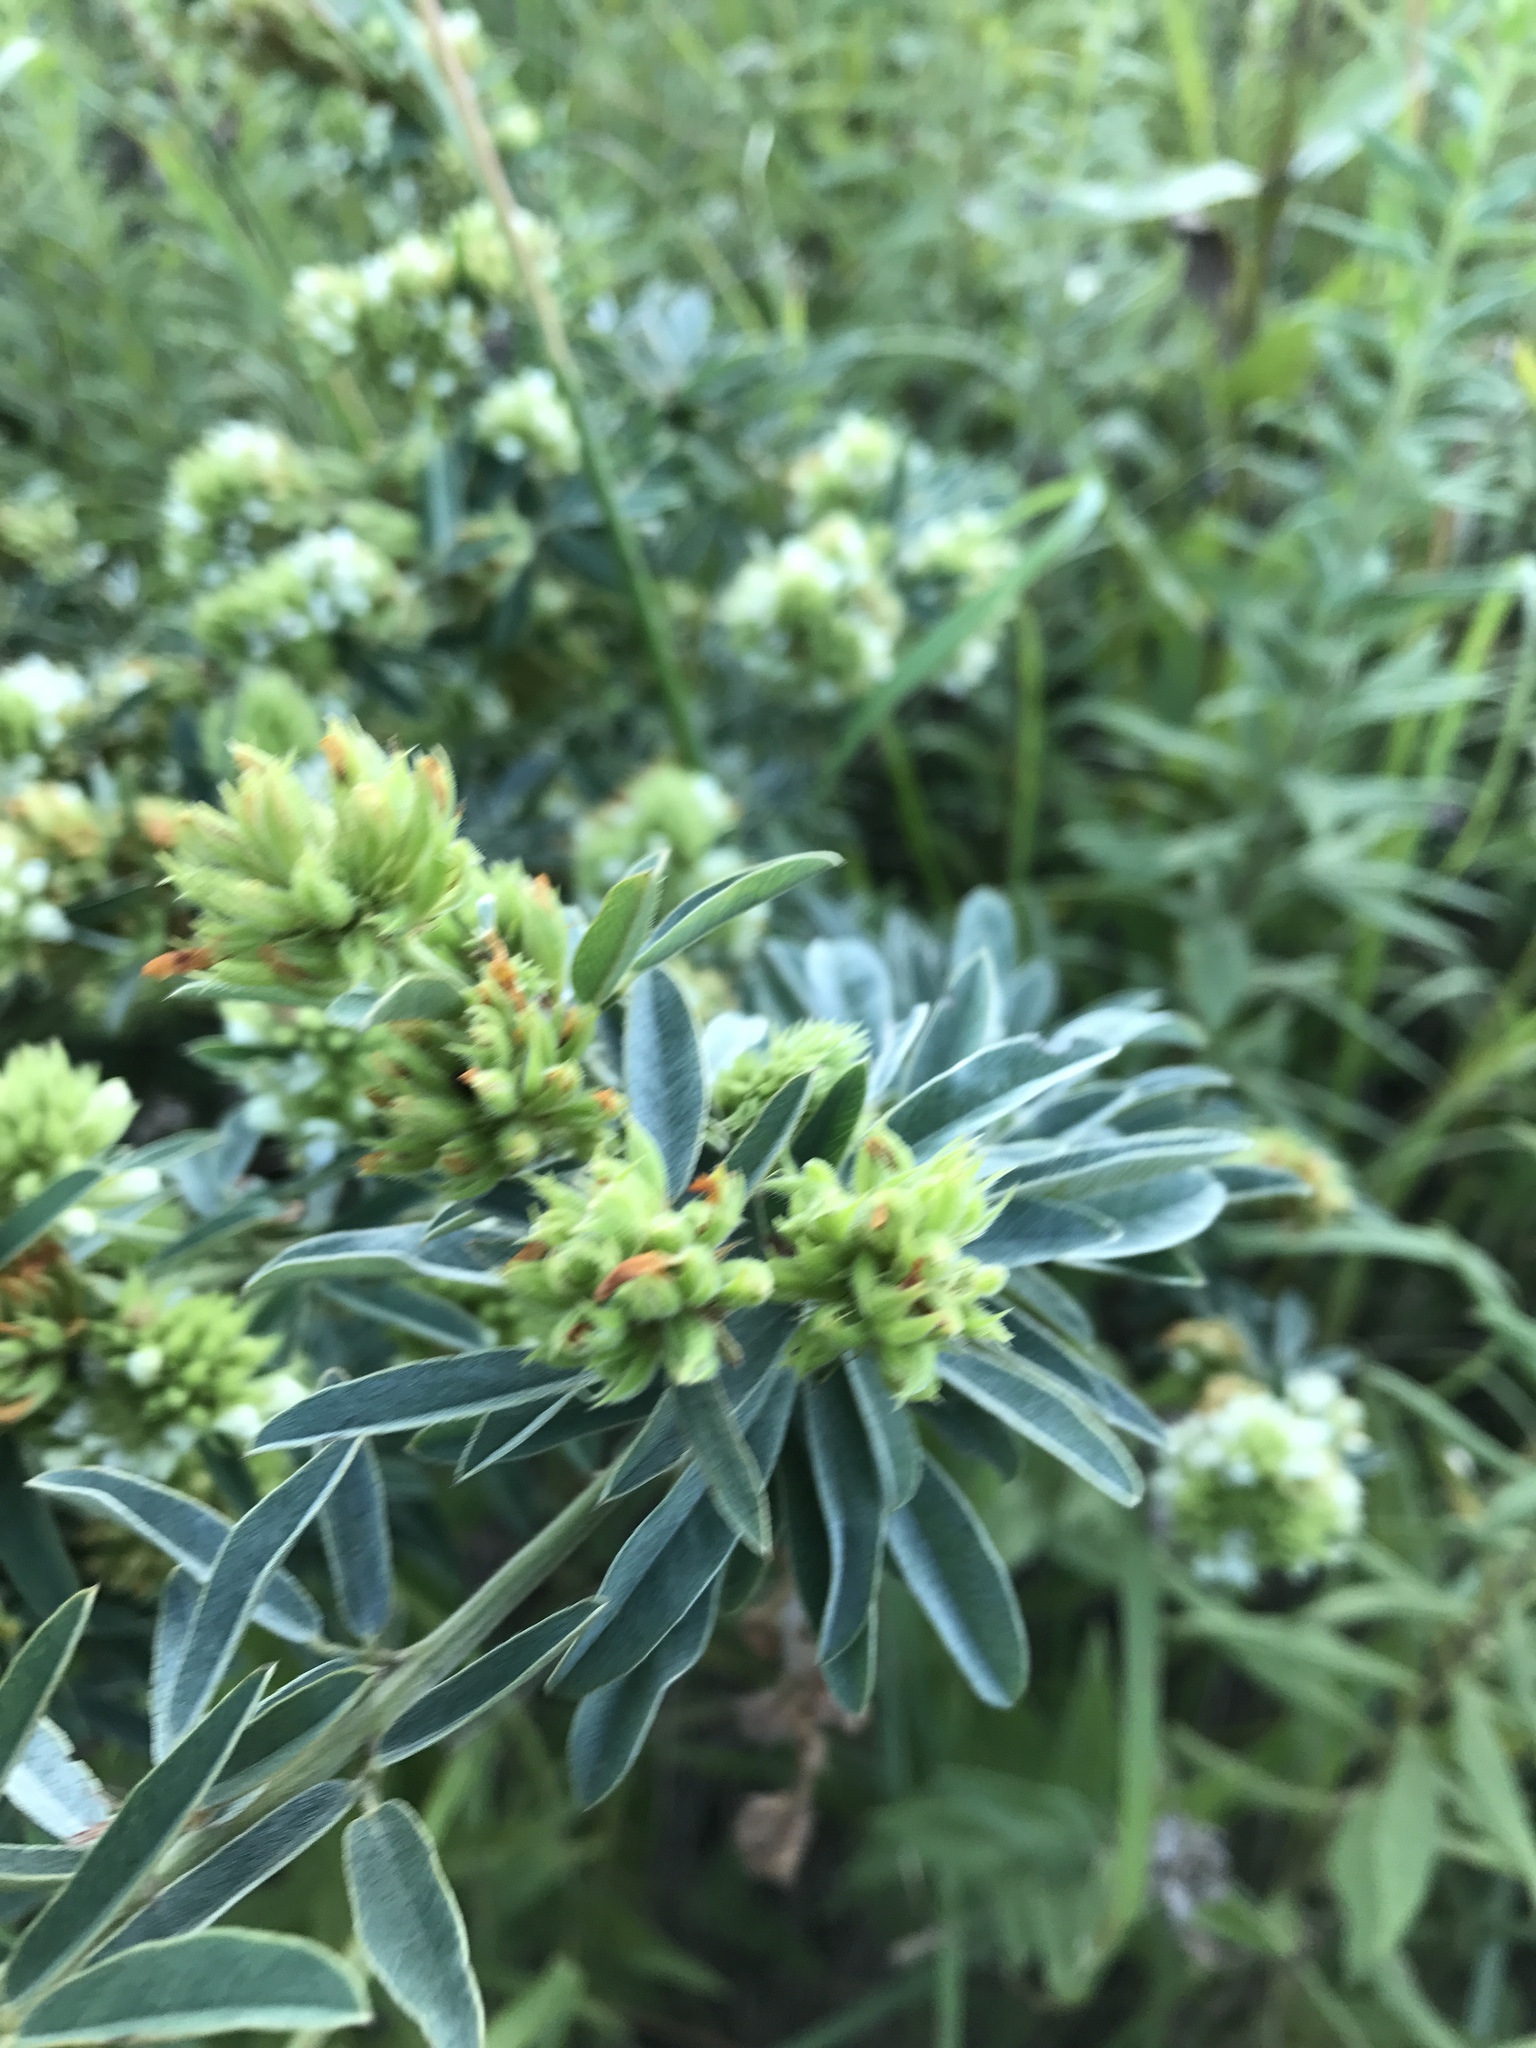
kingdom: Plantae
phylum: Tracheophyta
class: Magnoliopsida
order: Fabales
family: Fabaceae
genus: Lespedeza
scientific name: Lespedeza capitata
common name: Dusty clover
